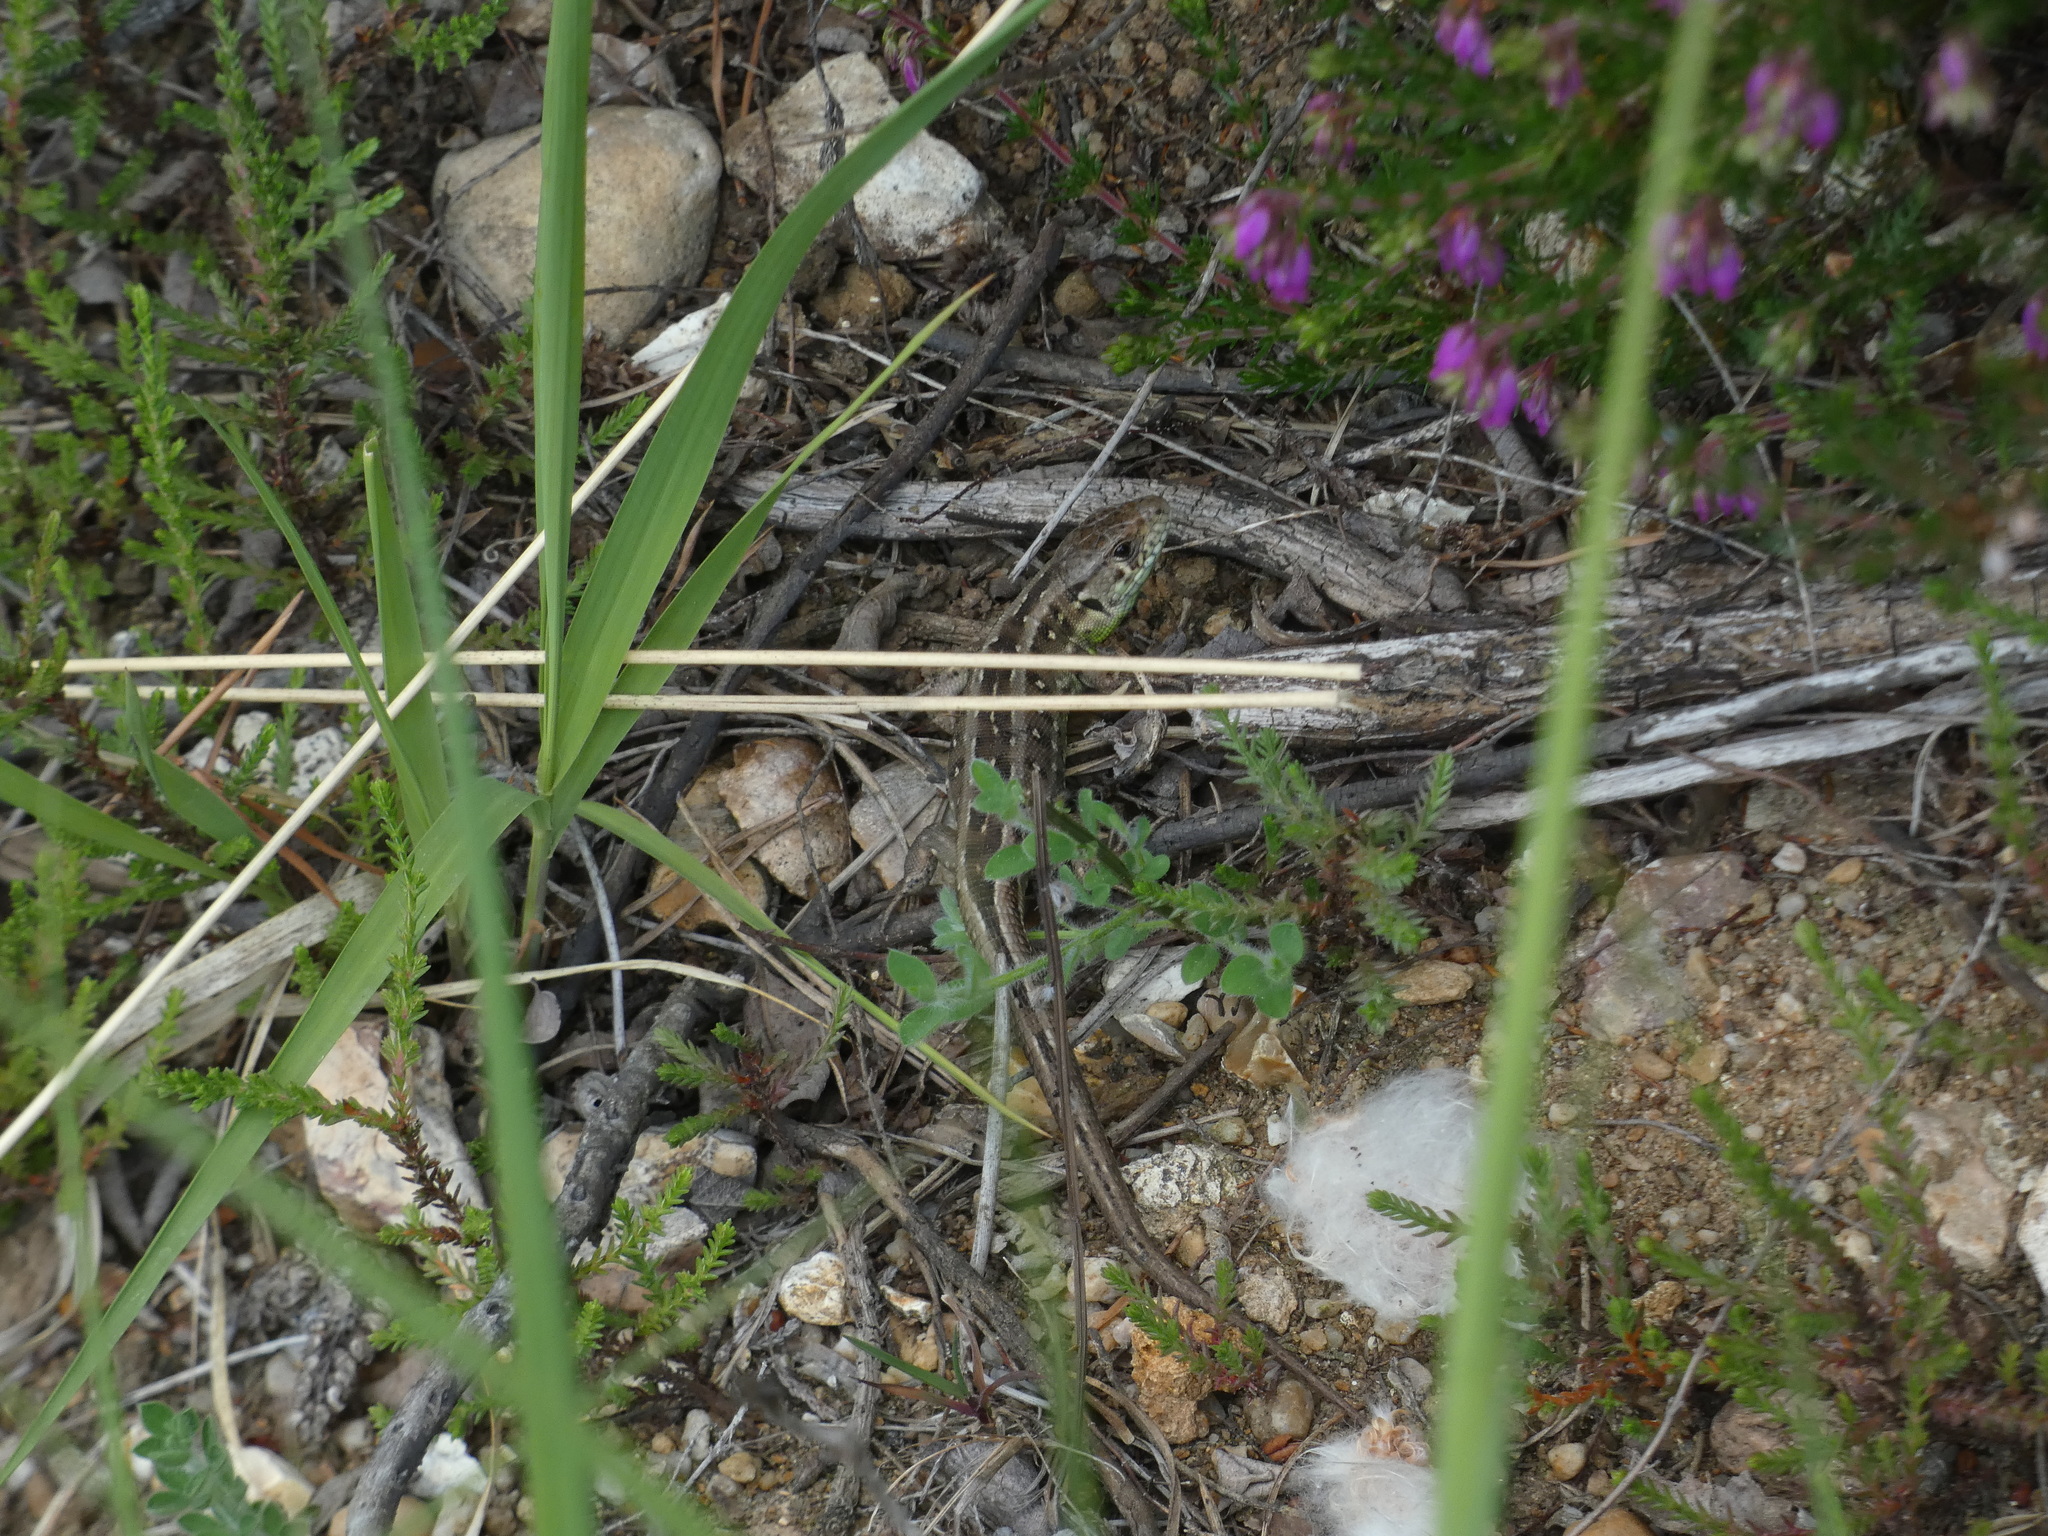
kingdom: Animalia
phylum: Chordata
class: Squamata
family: Lacertidae
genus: Lacerta
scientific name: Lacerta agilis
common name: Sand lizard
